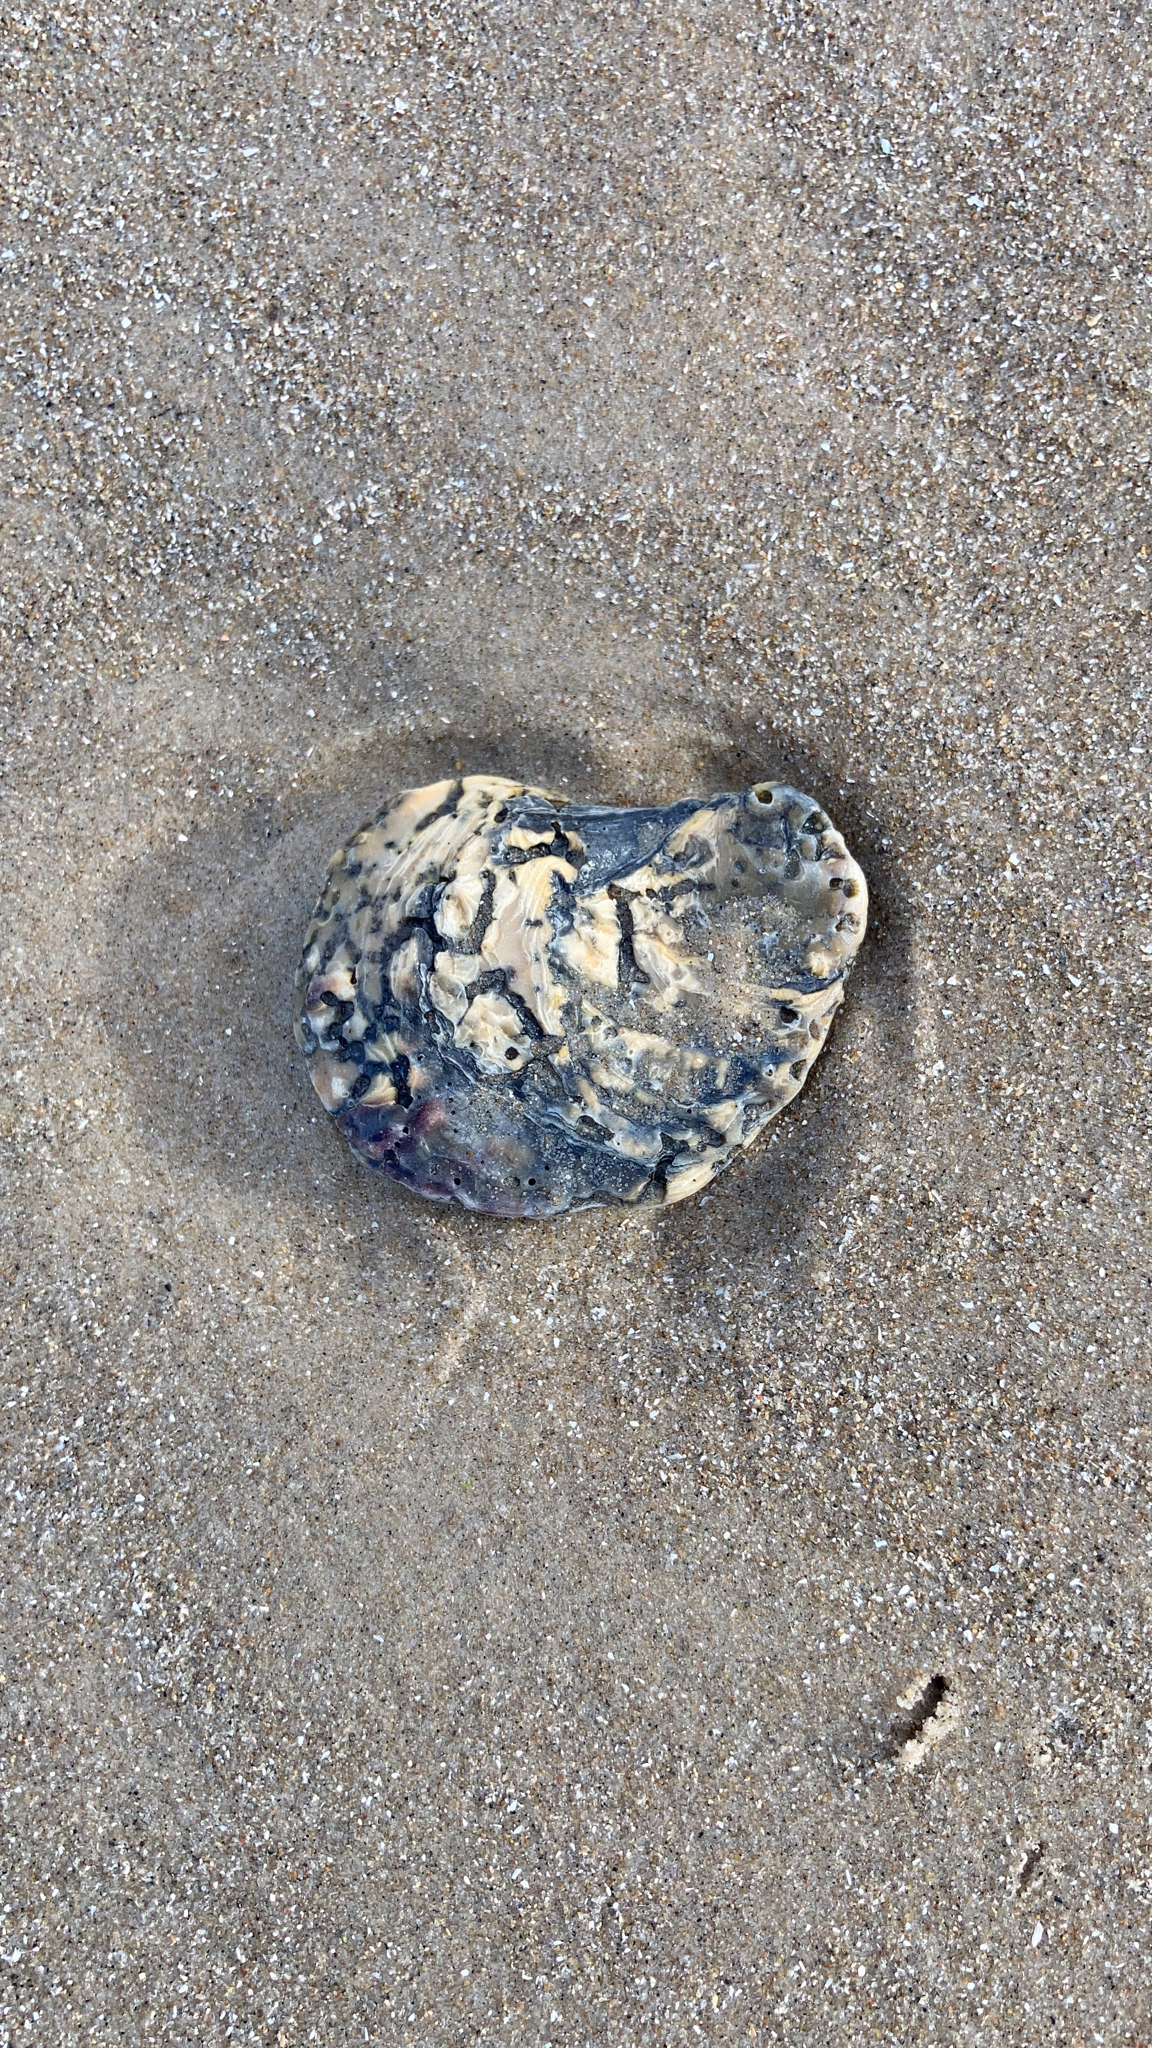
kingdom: Animalia
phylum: Mollusca
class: Bivalvia
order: Ostreida
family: Ostreidae
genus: Ostrea
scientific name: Ostrea edulis
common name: Flat oyster
